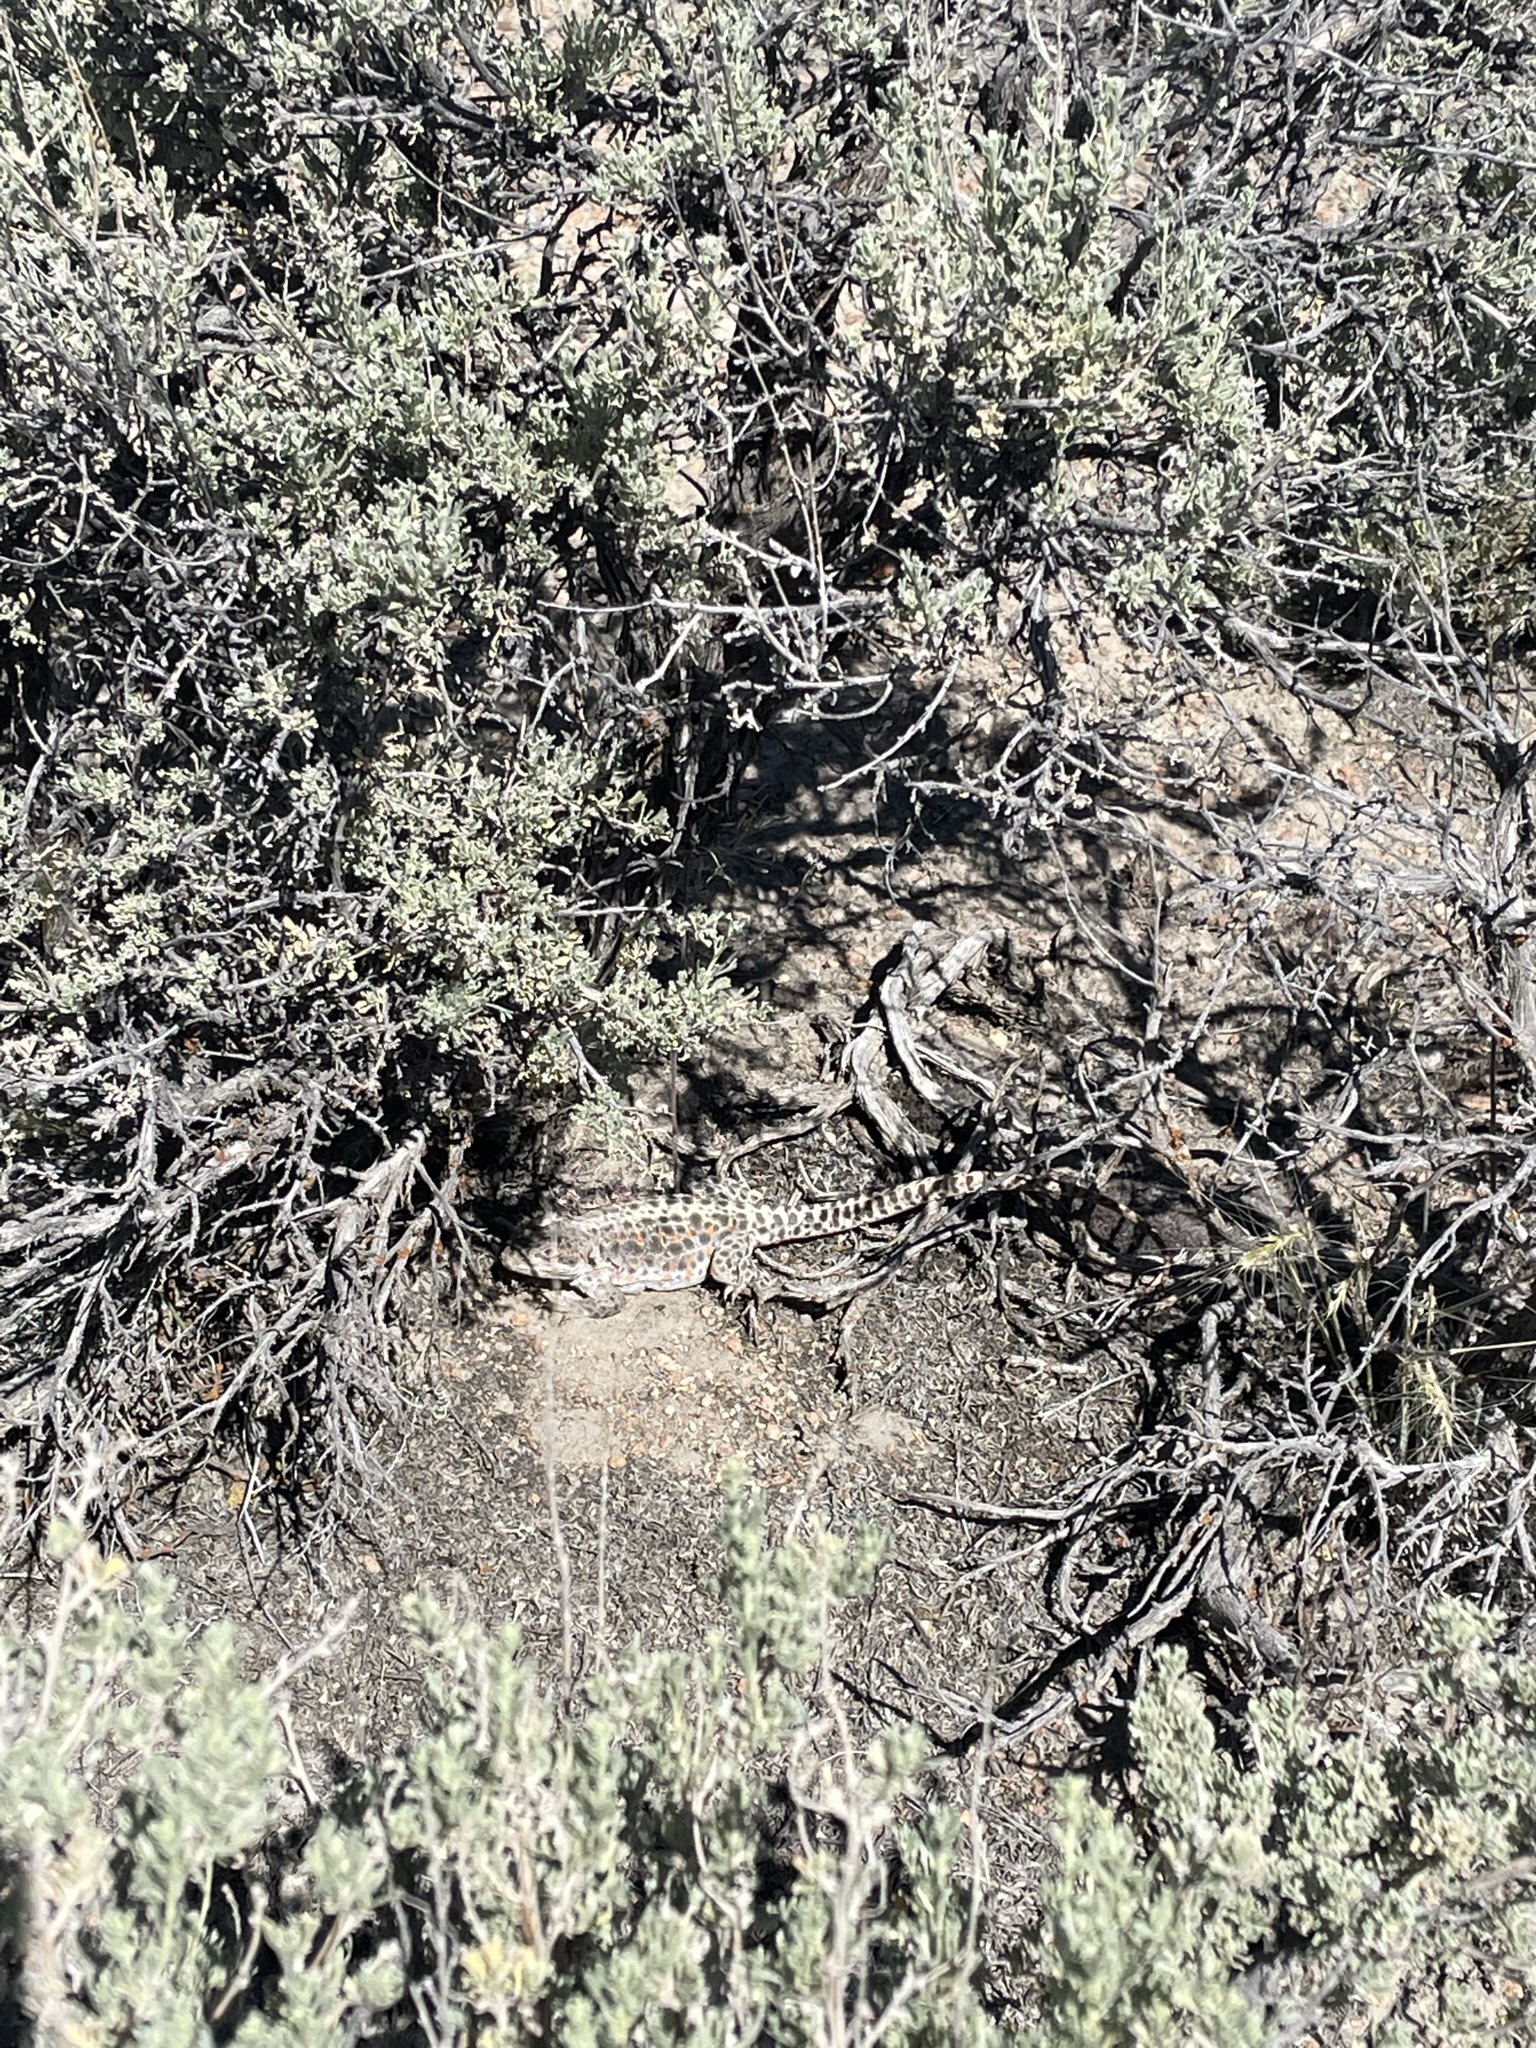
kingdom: Animalia
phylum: Chordata
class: Squamata
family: Crotaphytidae
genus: Gambelia
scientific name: Gambelia wislizenii
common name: Longnose leopard lizard
